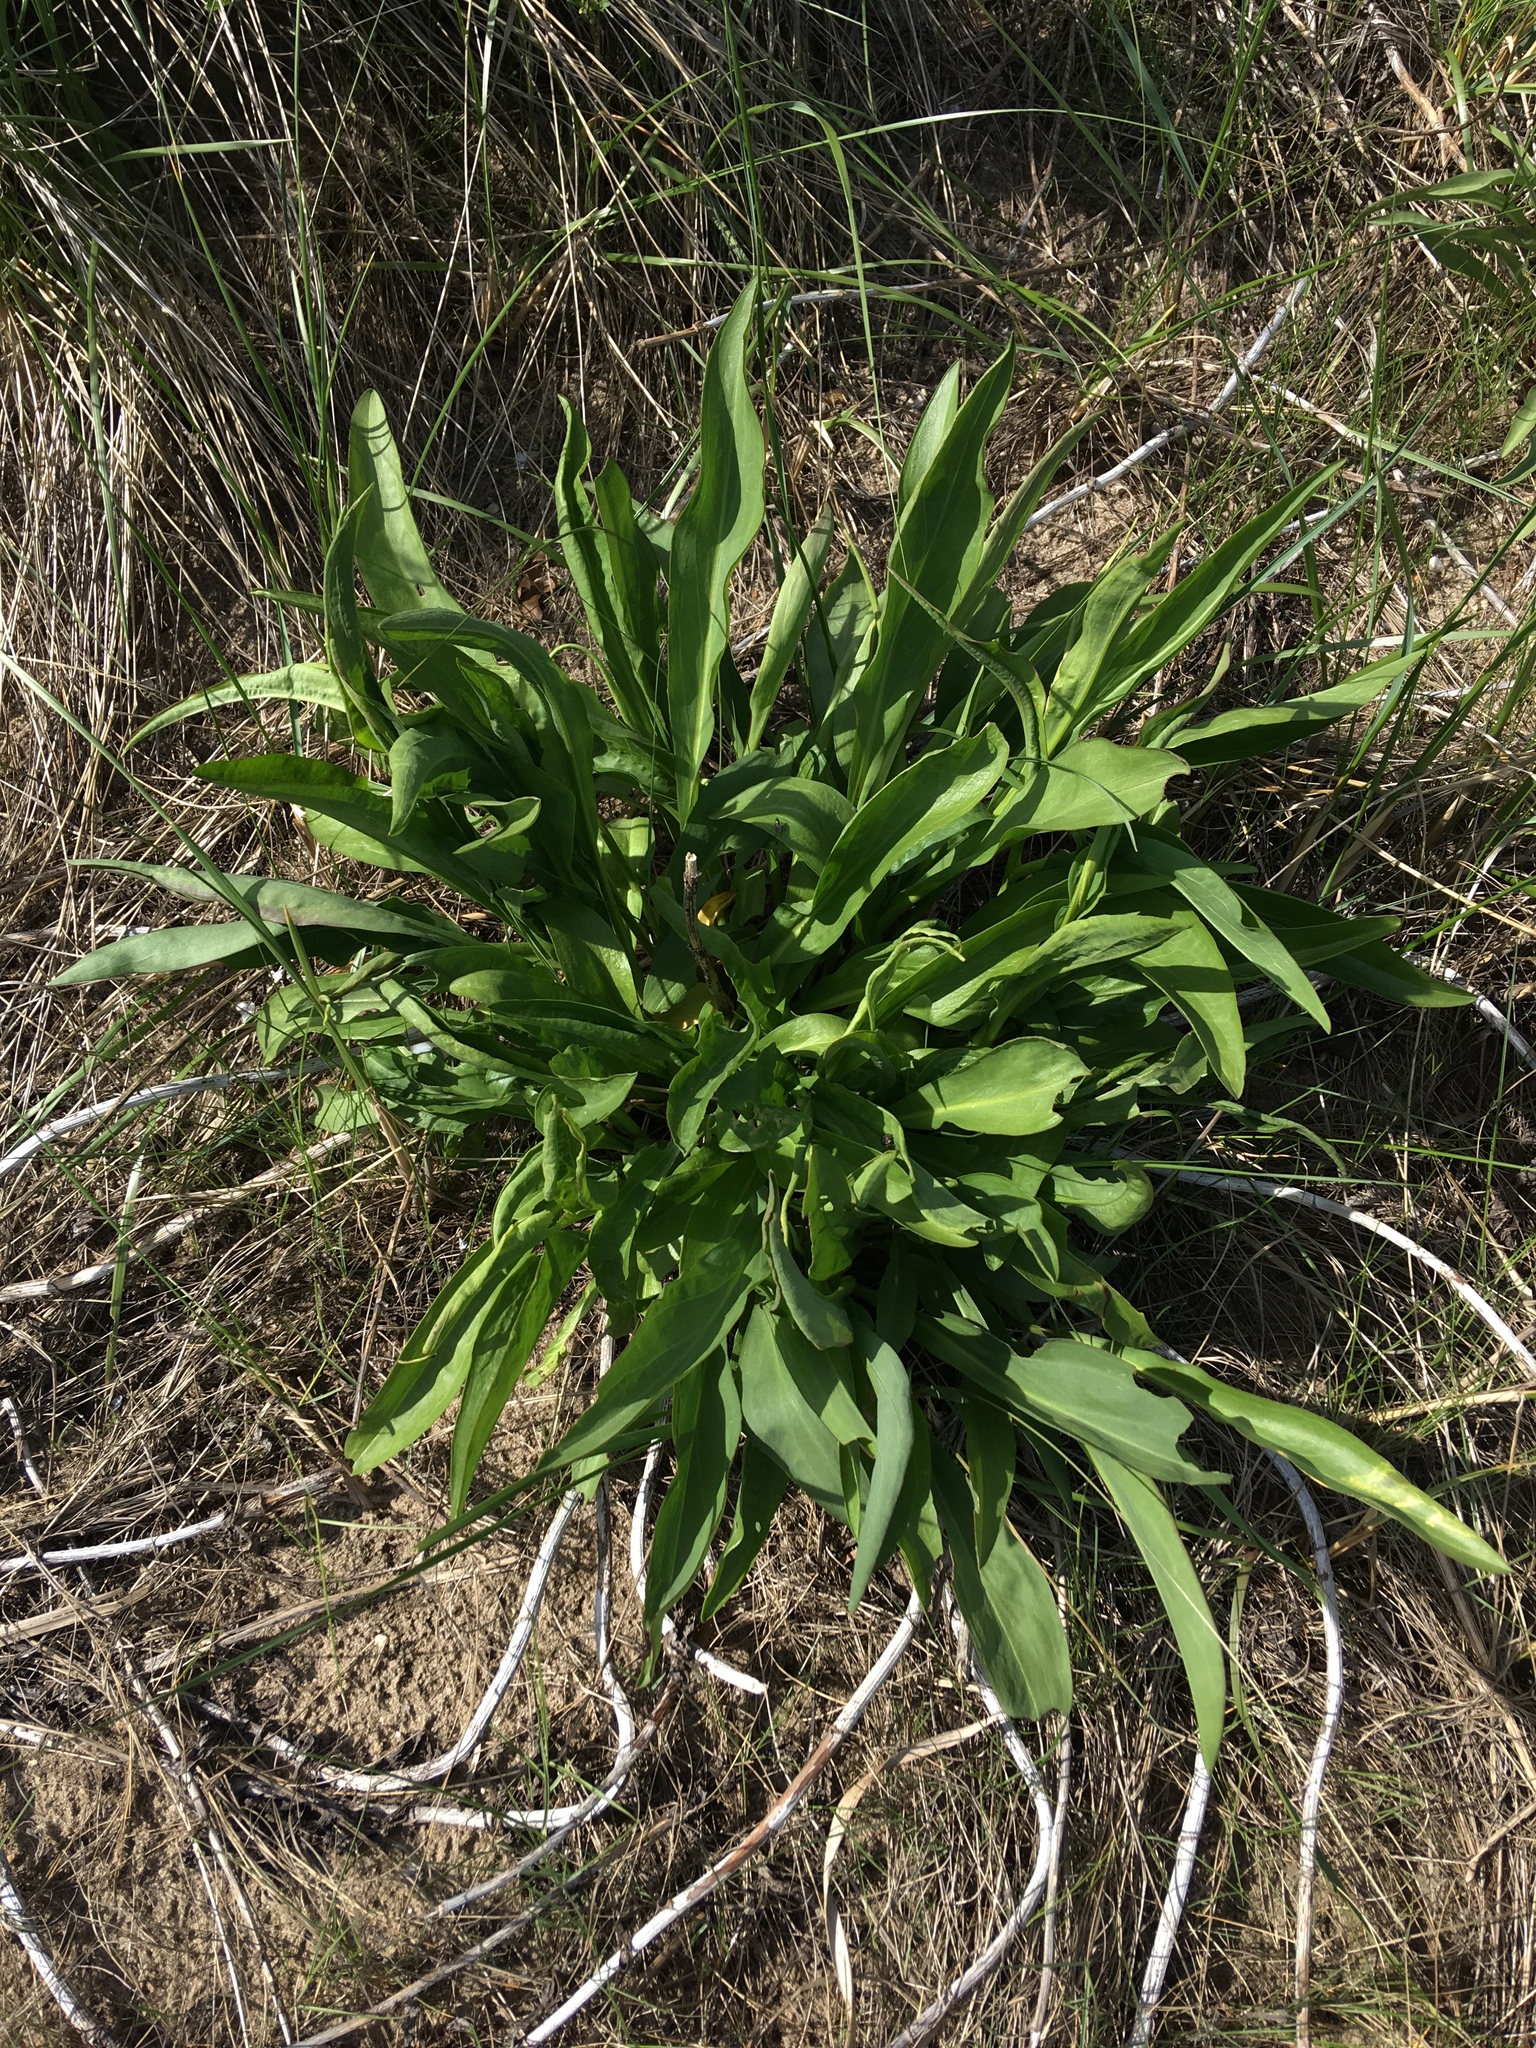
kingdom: Plantae
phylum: Tracheophyta
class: Magnoliopsida
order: Asterales
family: Asteraceae
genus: Solidago
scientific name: Solidago sempervirens
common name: Salt-marsh goldenrod
